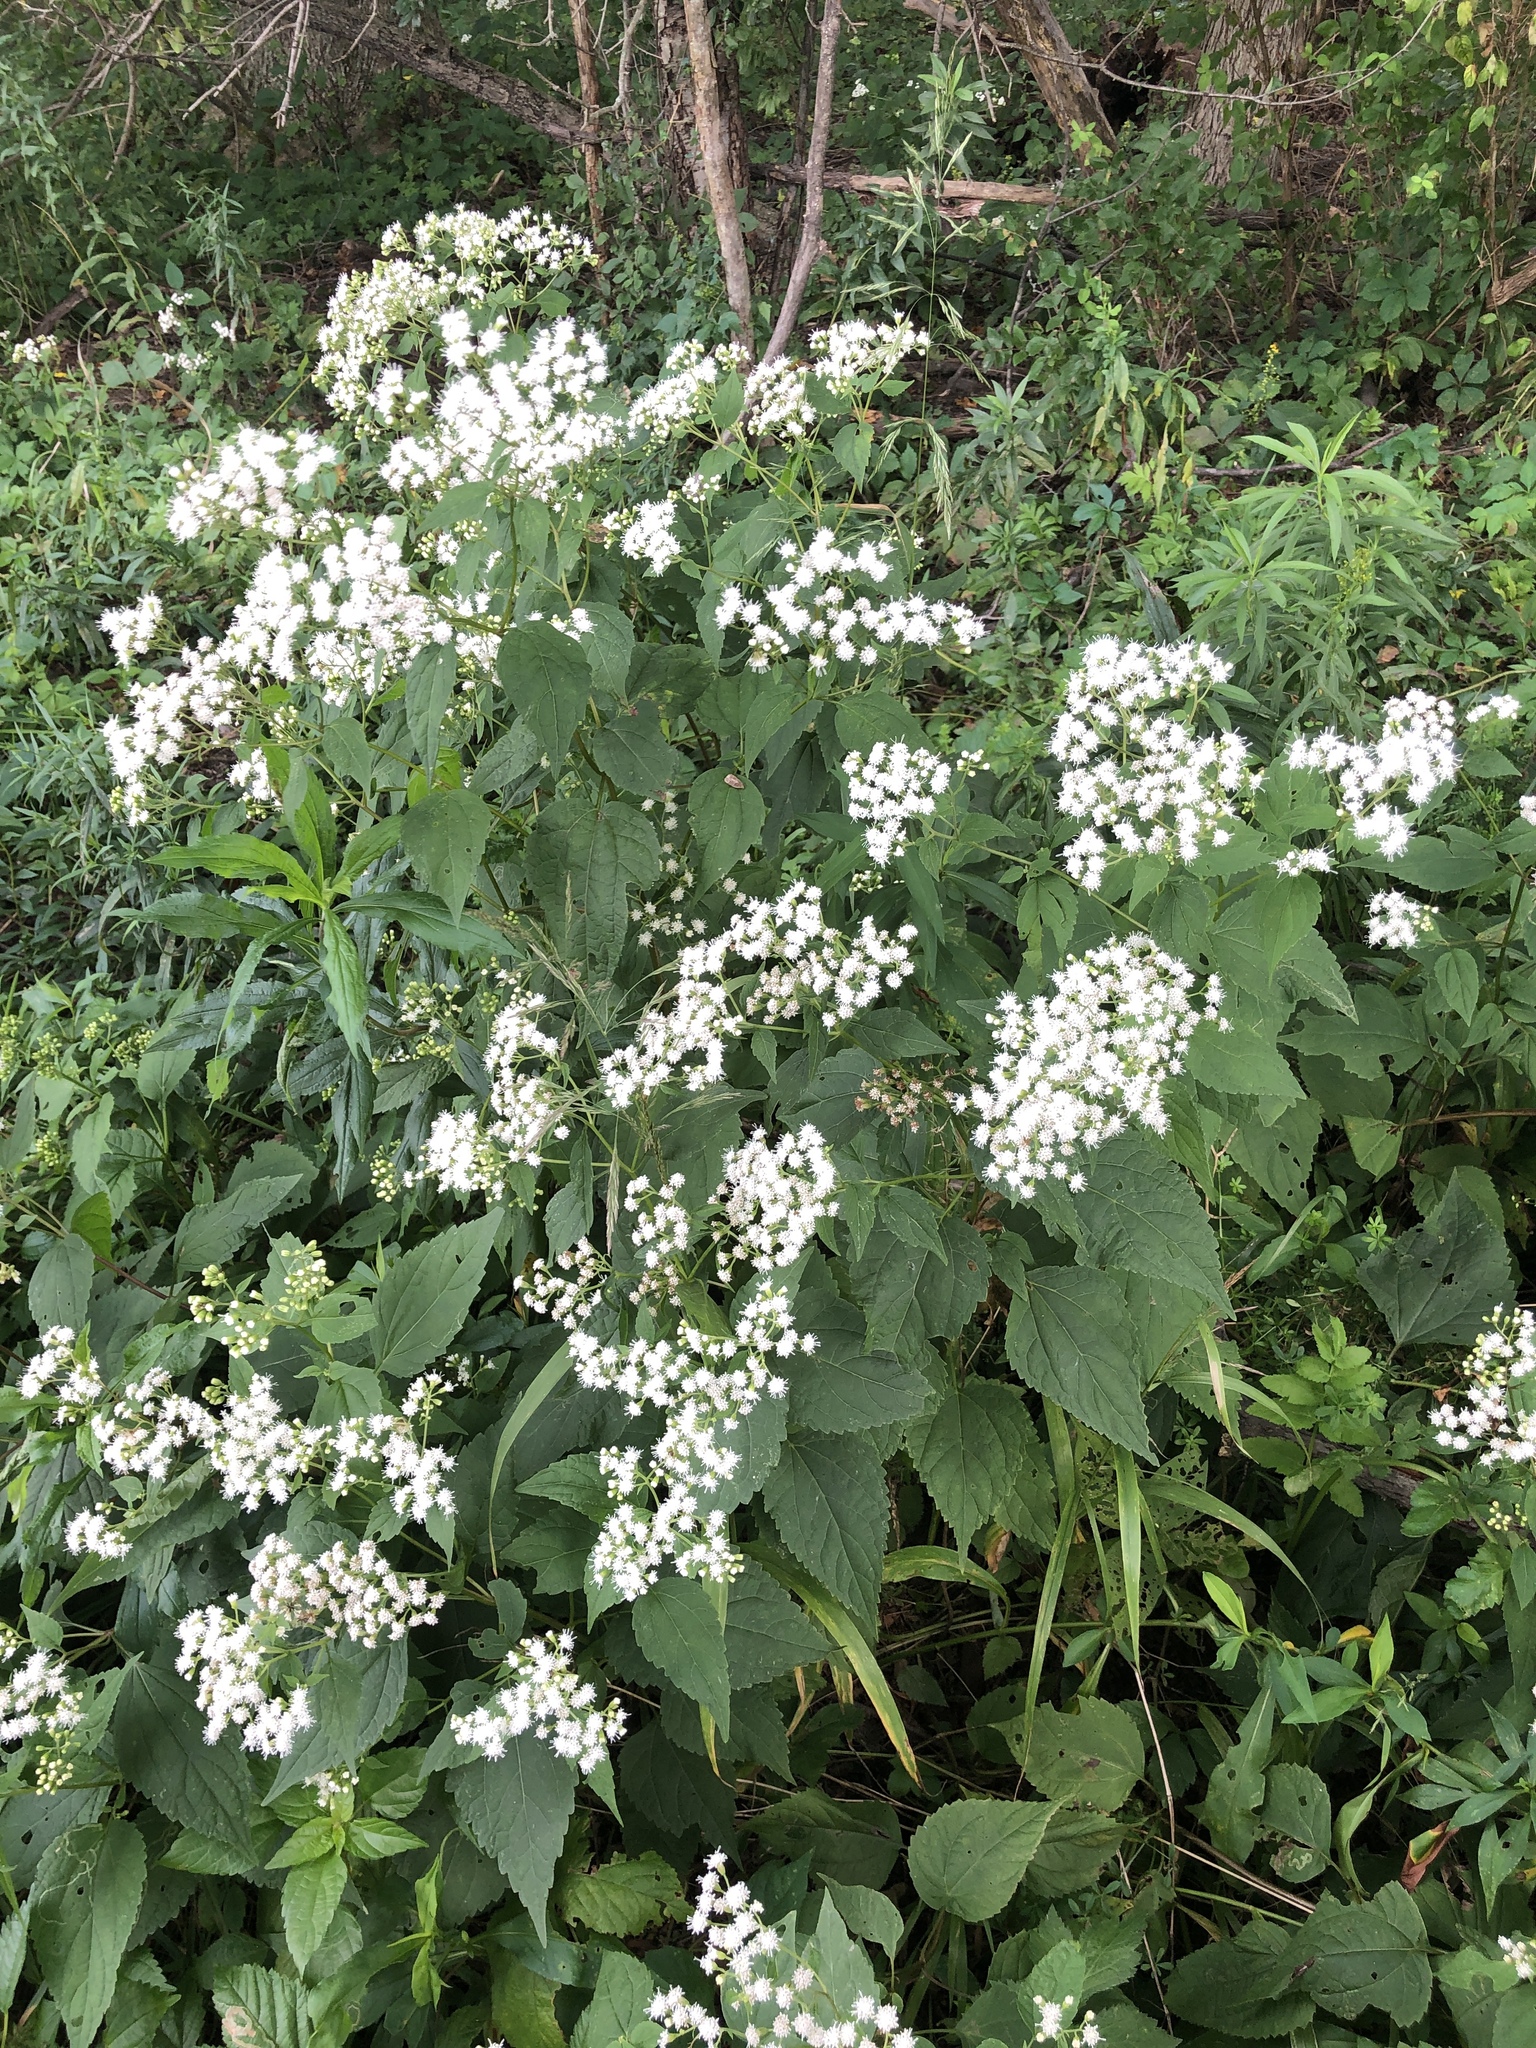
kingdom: Plantae
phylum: Tracheophyta
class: Magnoliopsida
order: Asterales
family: Asteraceae
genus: Ageratina
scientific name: Ageratina altissima
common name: White snakeroot
